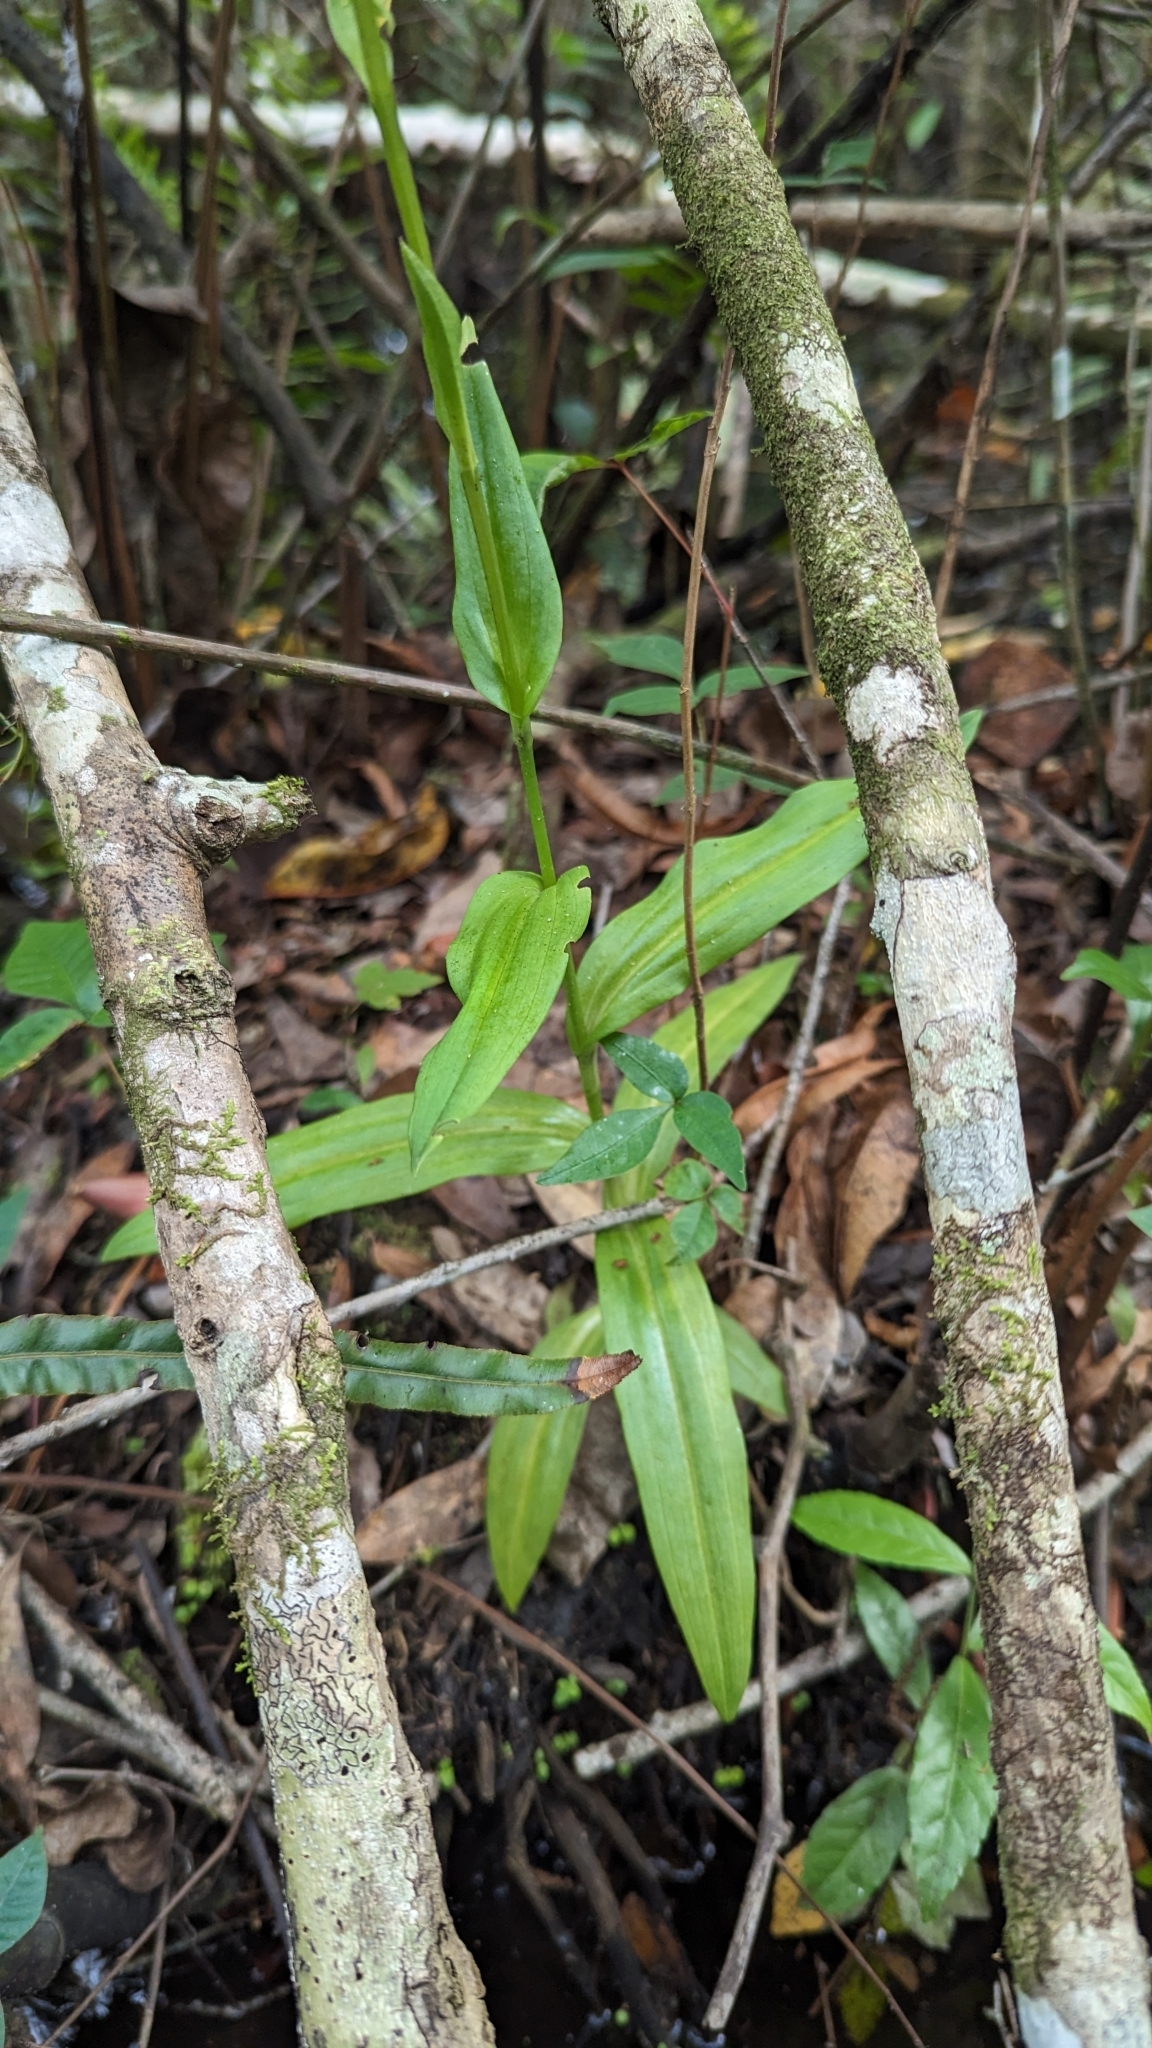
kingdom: Plantae
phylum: Tracheophyta
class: Liliopsida
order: Asparagales
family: Orchidaceae
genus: Habenaria
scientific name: Habenaria floribunda
